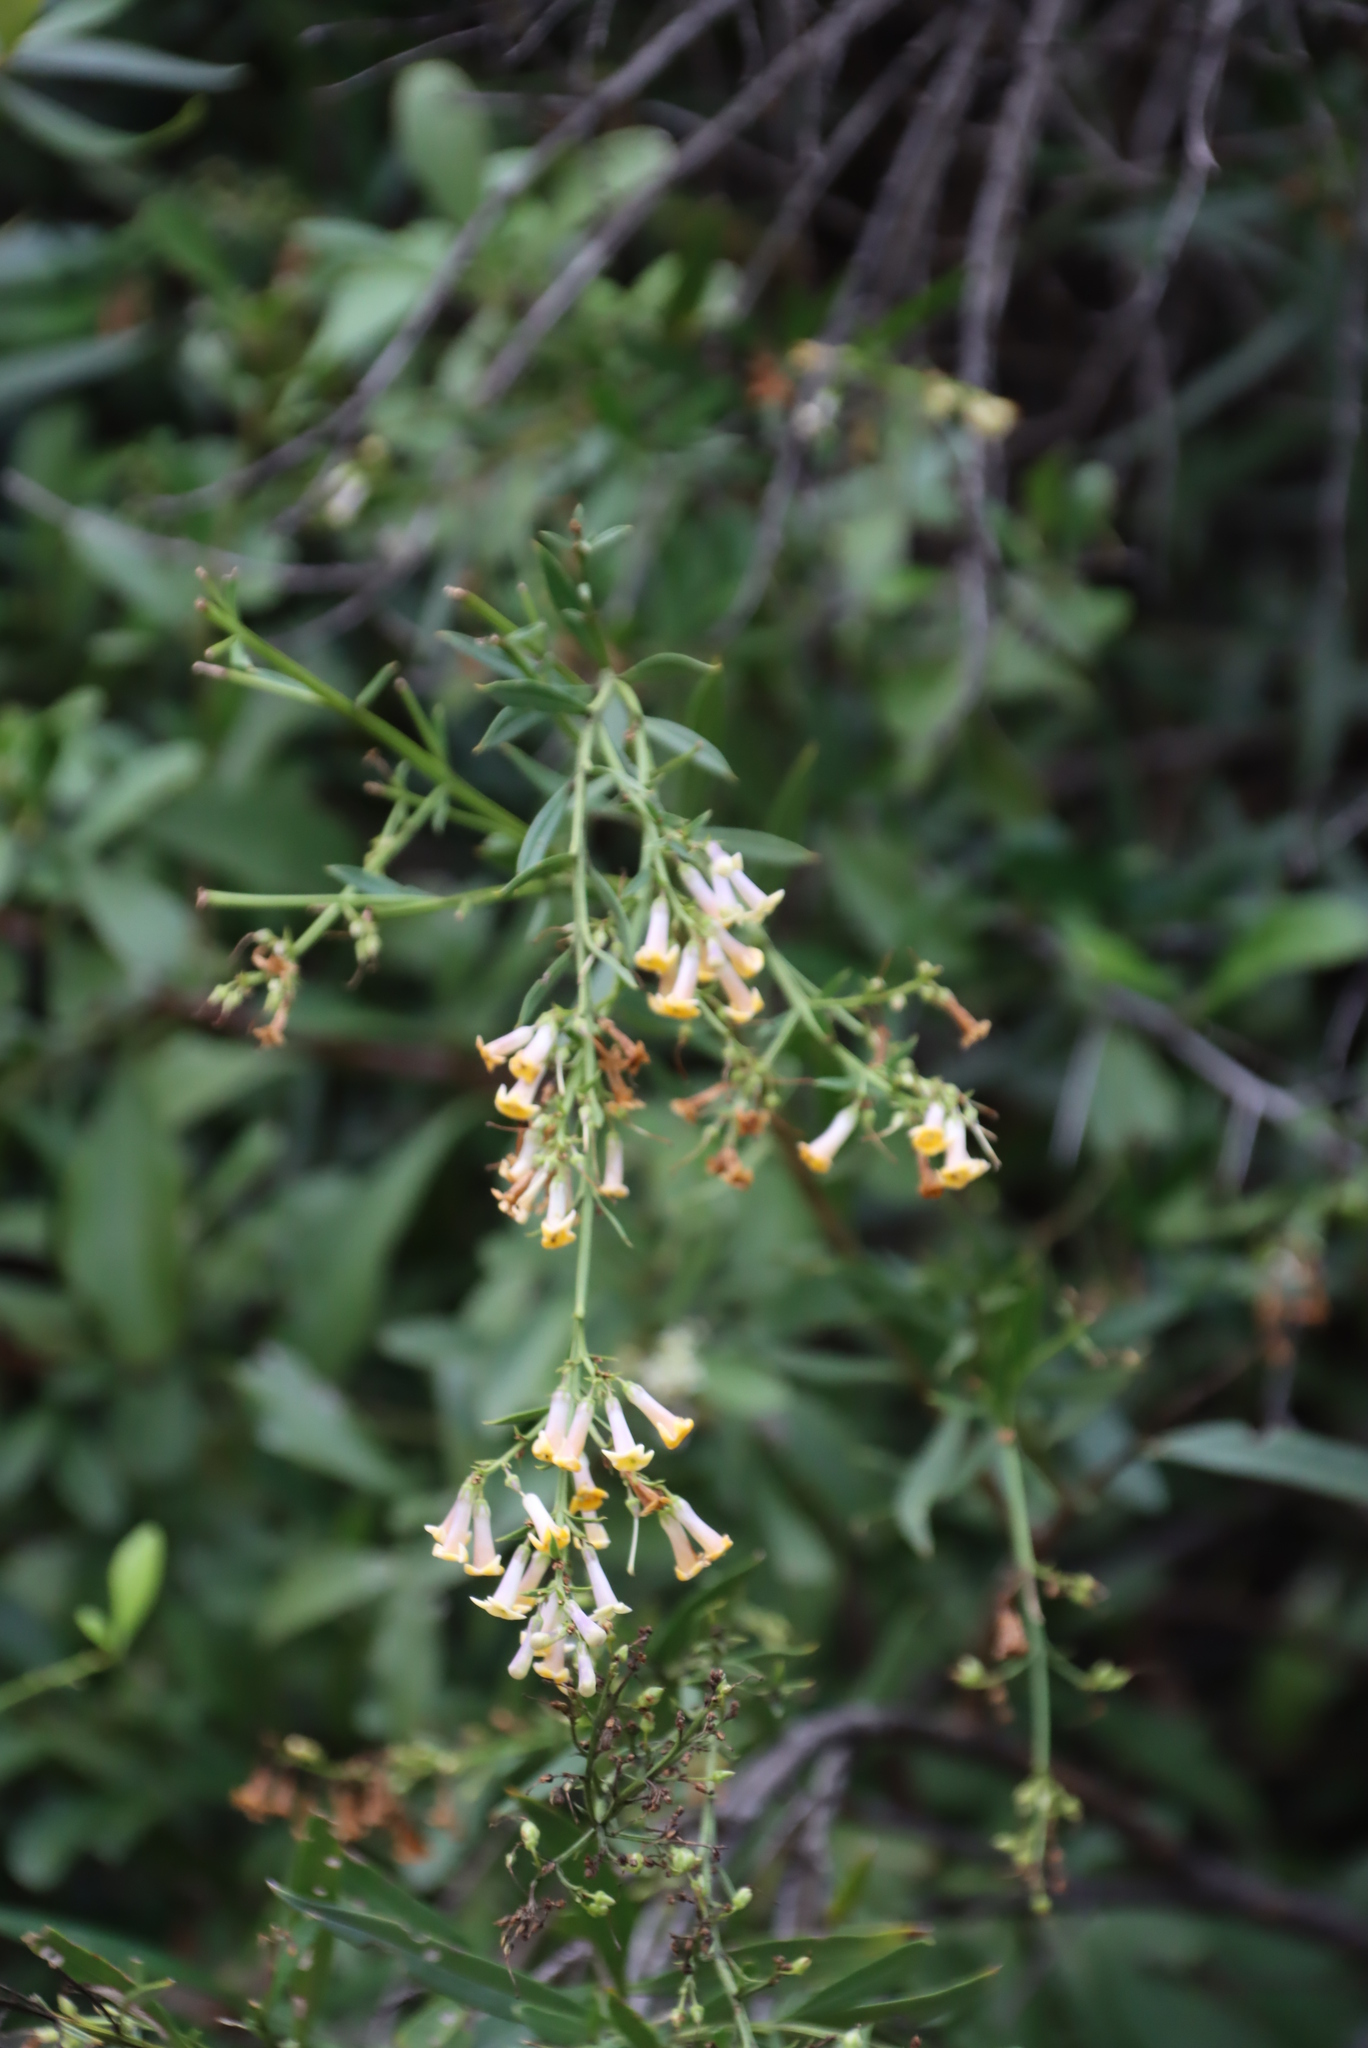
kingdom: Plantae
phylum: Tracheophyta
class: Magnoliopsida
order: Lamiales
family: Scrophulariaceae
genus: Freylinia
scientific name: Freylinia lanceolata
